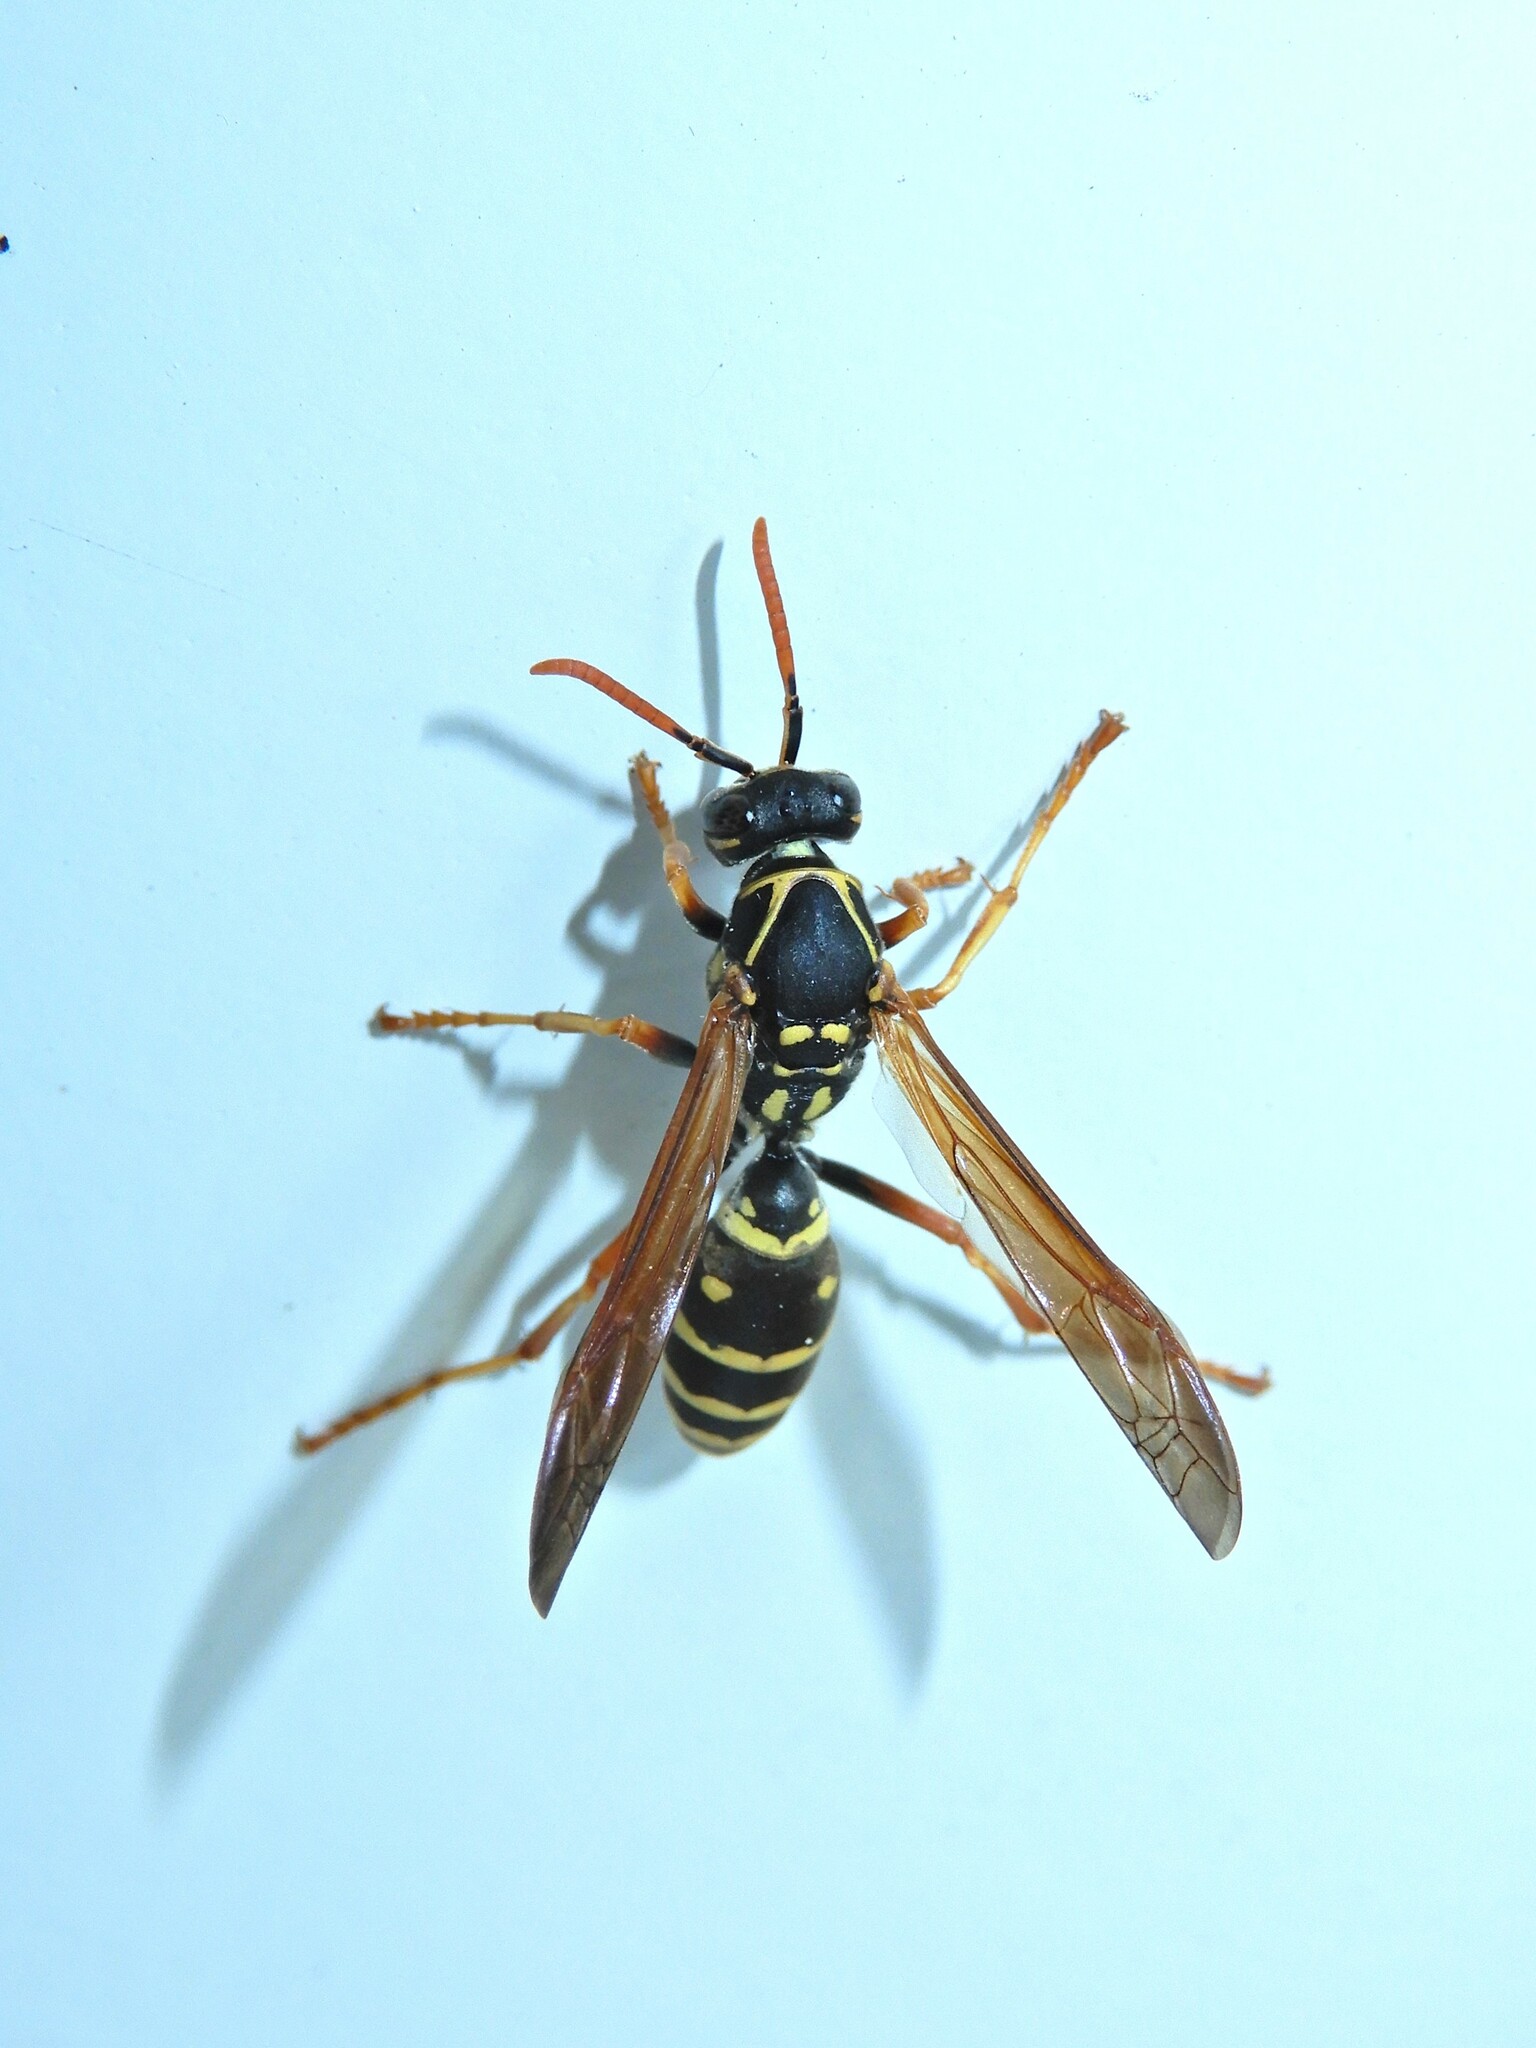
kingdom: Animalia
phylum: Arthropoda
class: Insecta
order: Hymenoptera
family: Eumenidae
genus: Polistes
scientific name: Polistes chinensis
